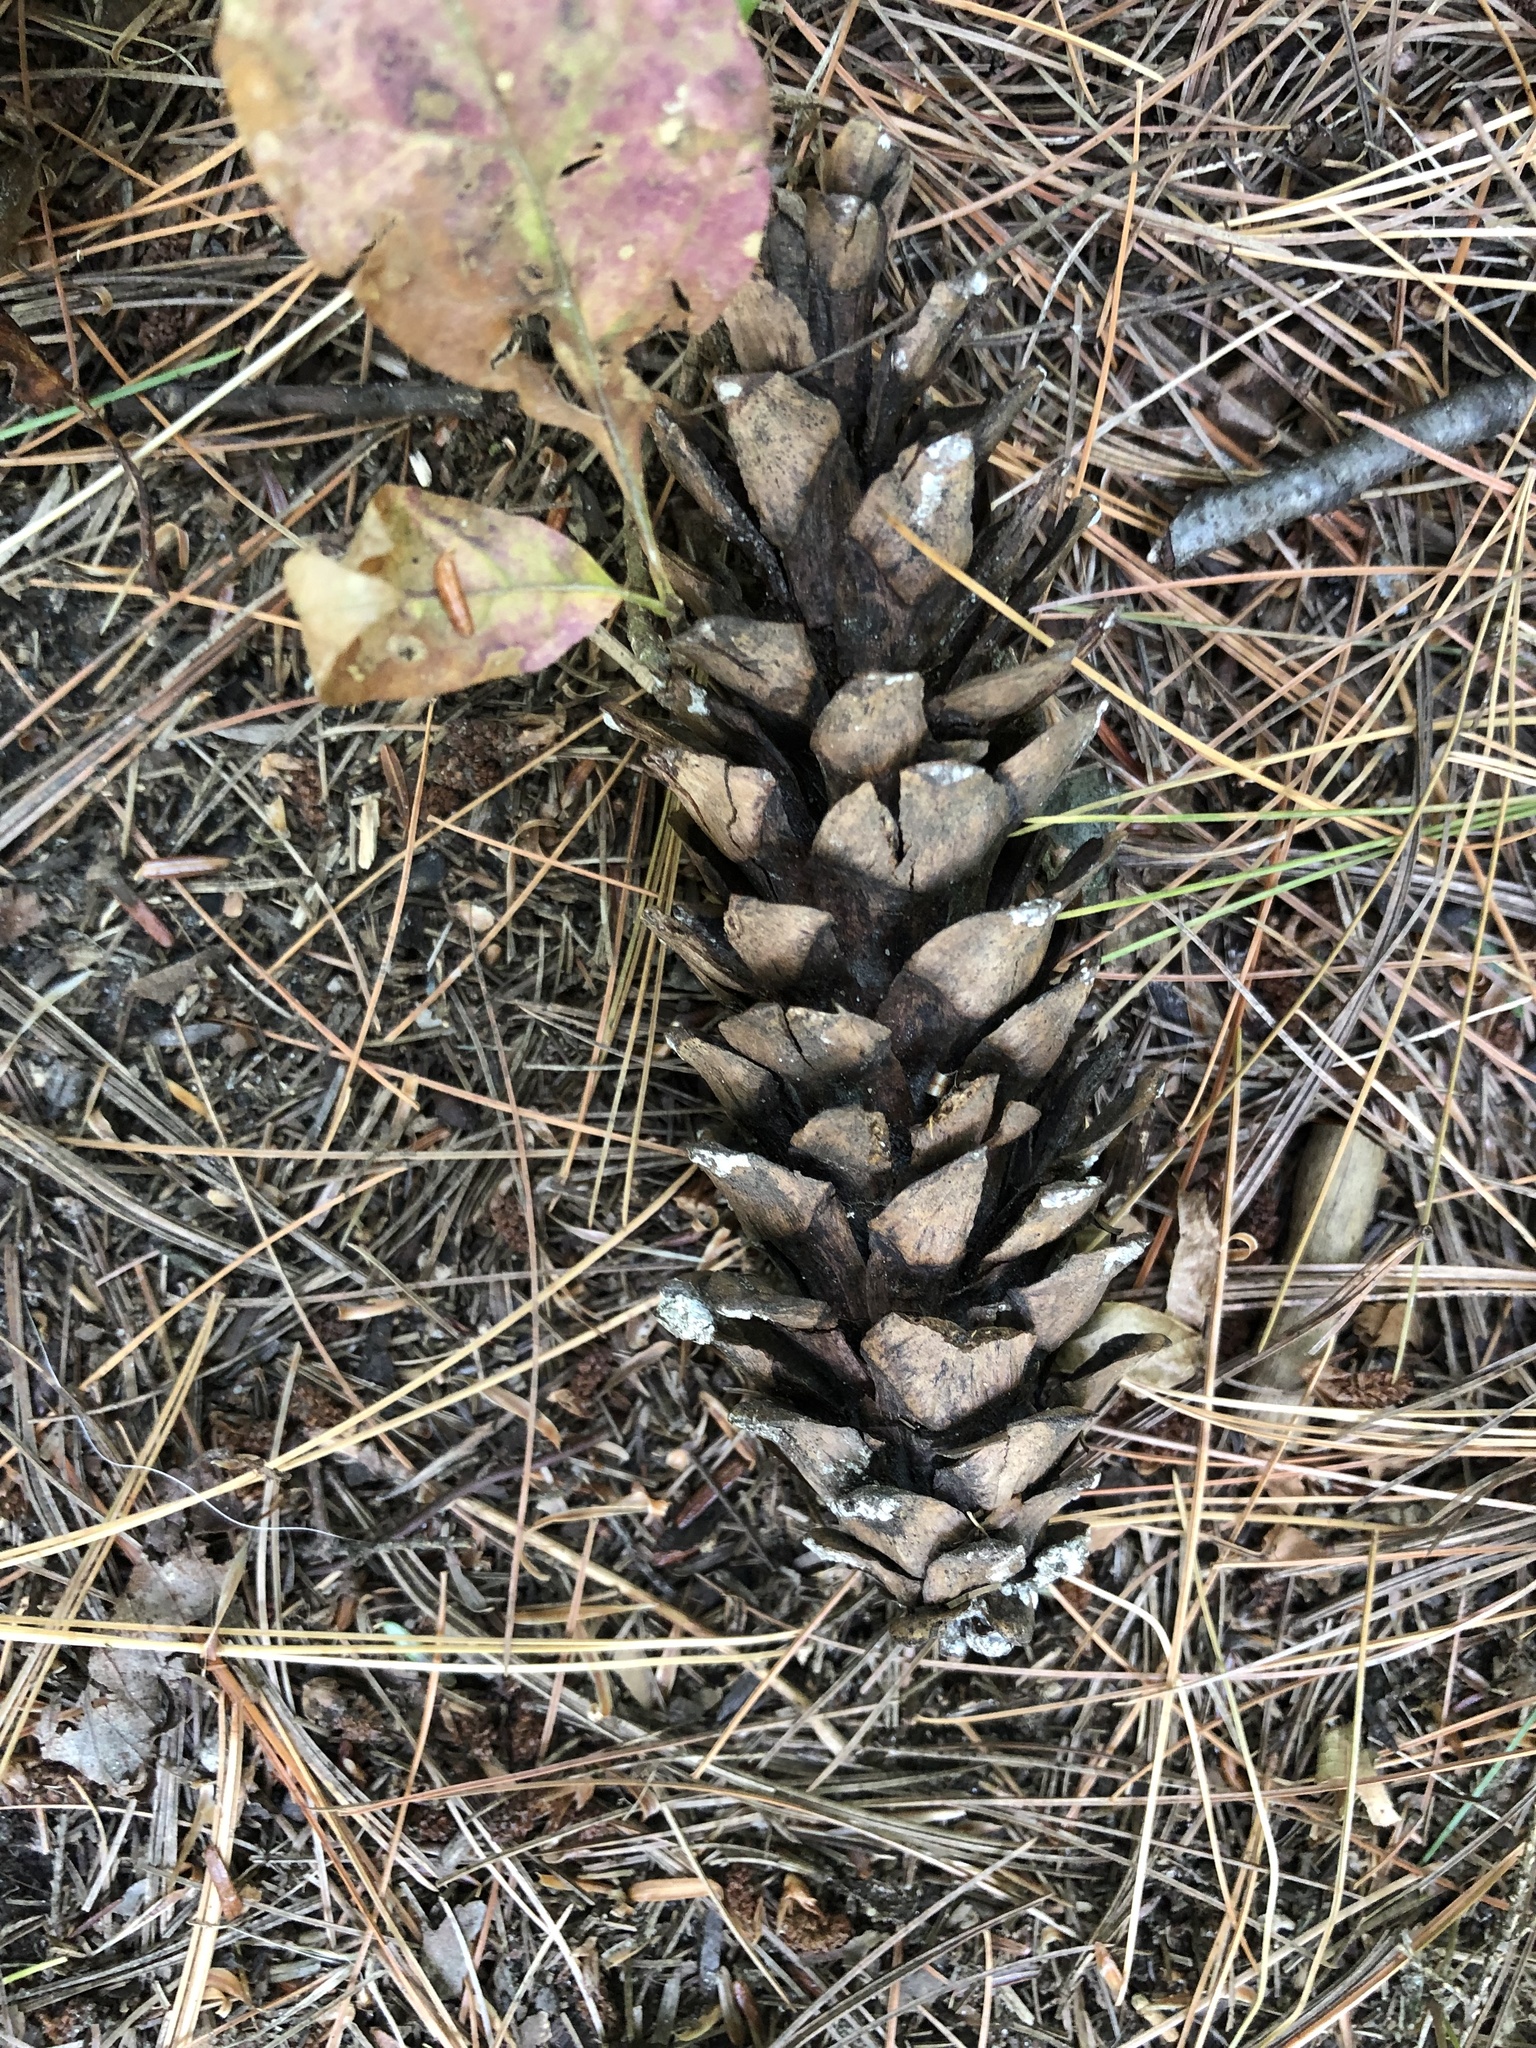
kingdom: Plantae
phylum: Tracheophyta
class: Pinopsida
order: Pinales
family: Pinaceae
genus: Pinus
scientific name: Pinus strobus
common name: Weymouth pine
